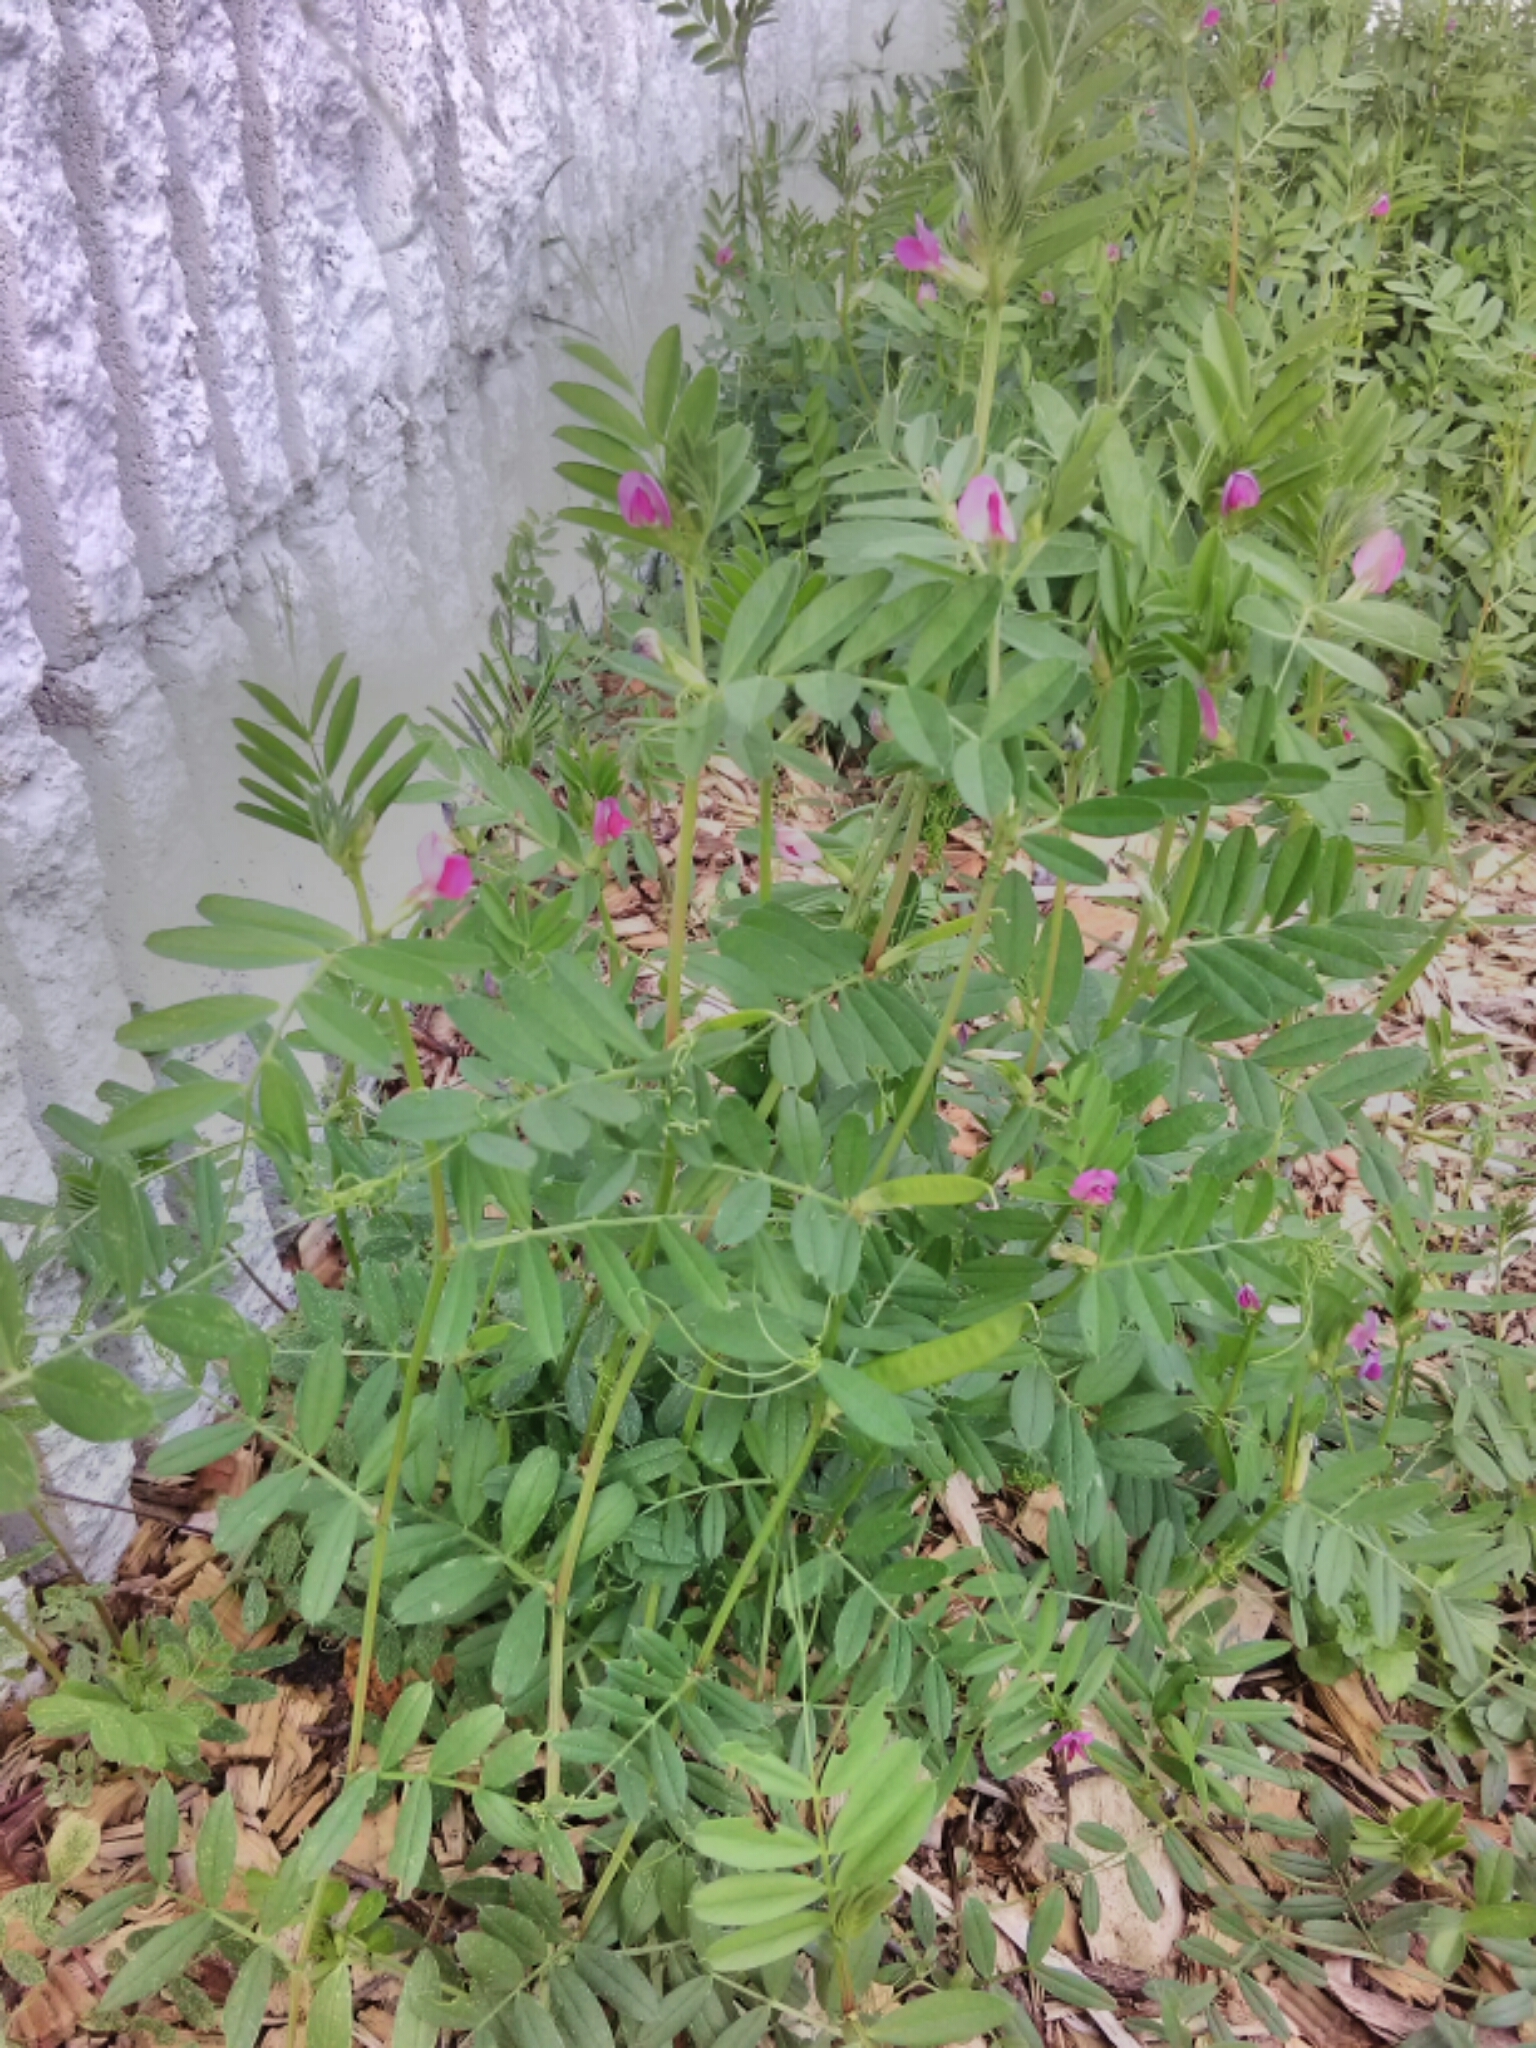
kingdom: Plantae
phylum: Tracheophyta
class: Magnoliopsida
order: Fabales
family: Fabaceae
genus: Vicia
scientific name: Vicia sativa
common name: Garden vetch
